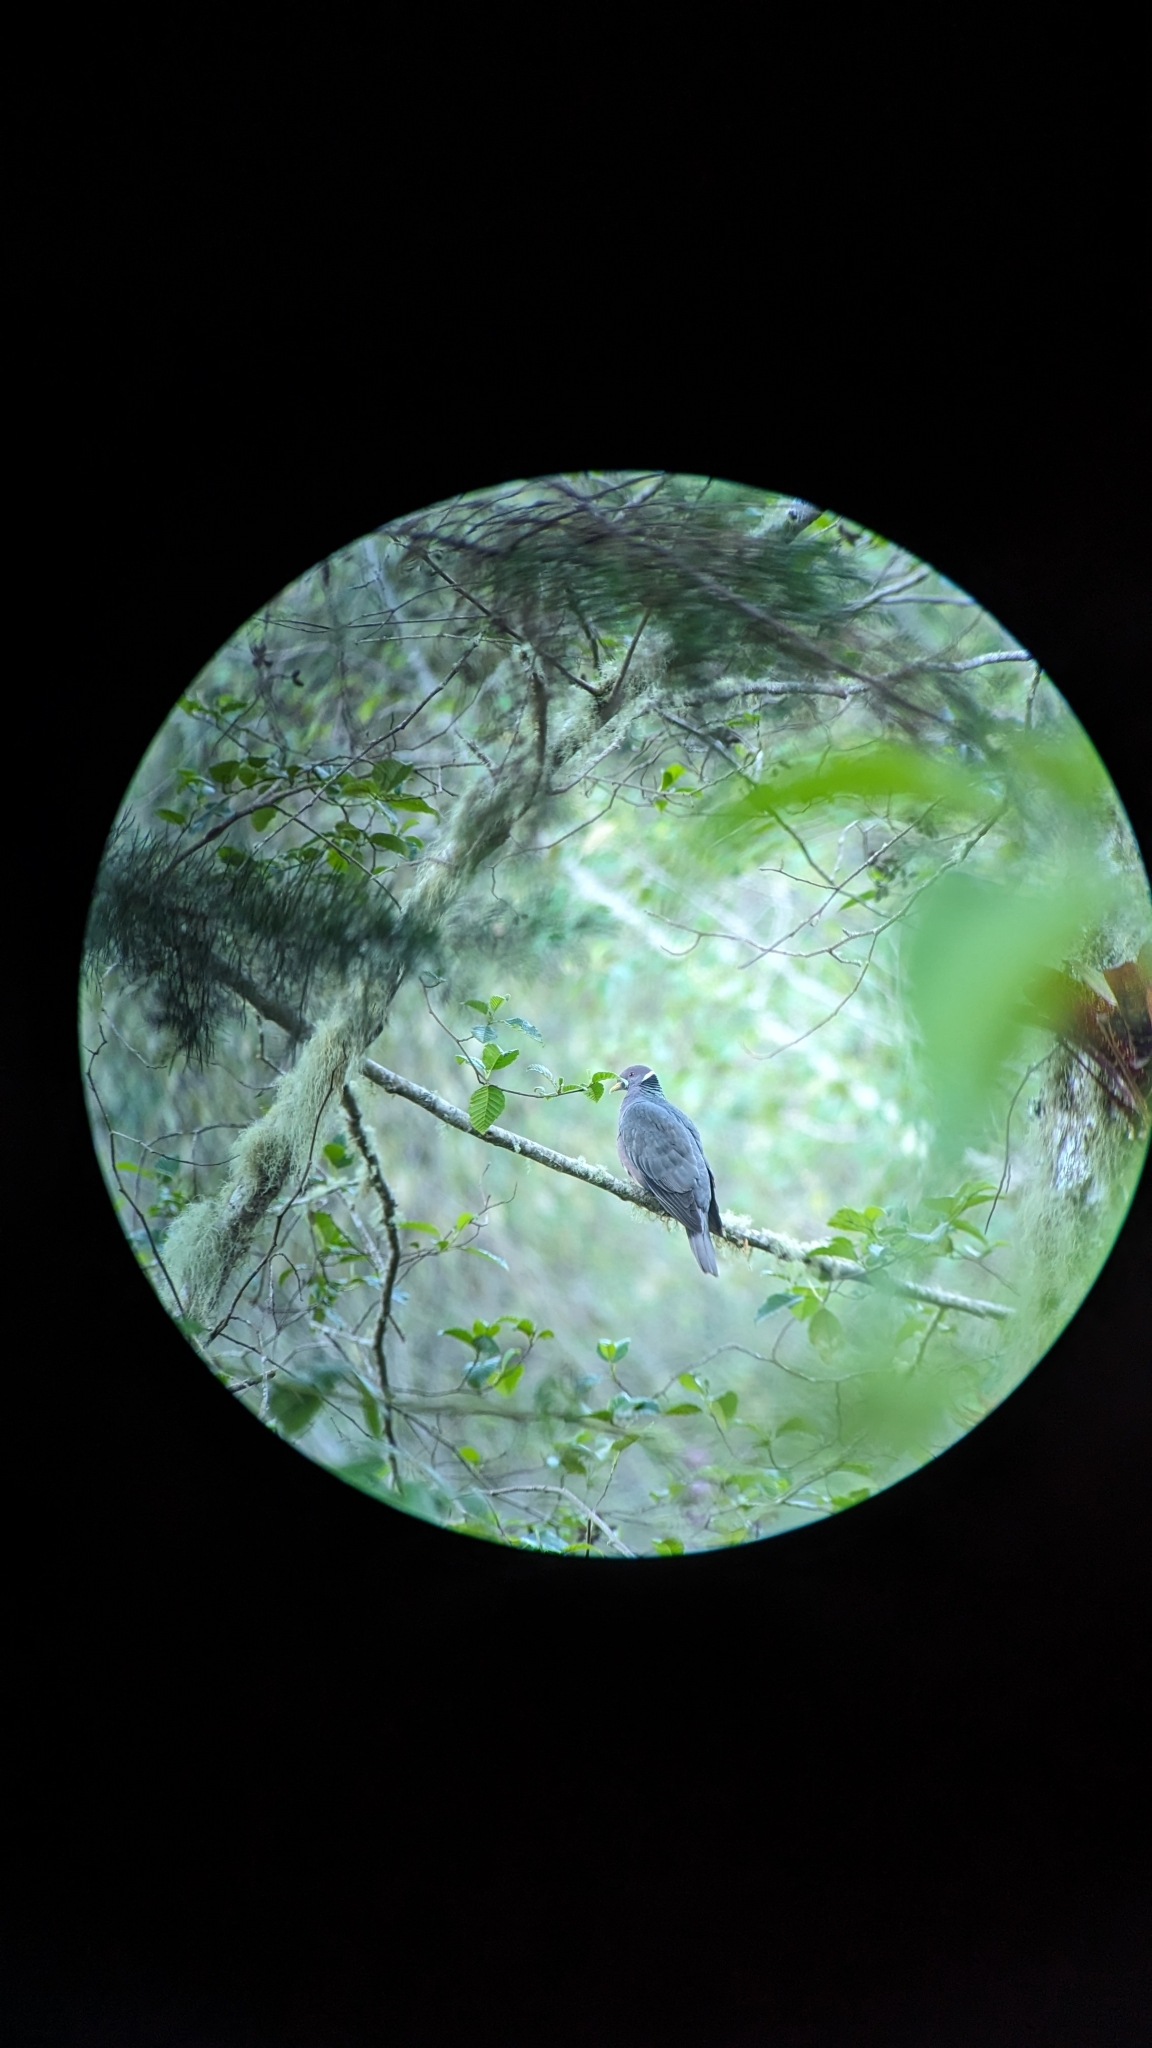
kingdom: Animalia
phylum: Chordata
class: Aves
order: Columbiformes
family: Columbidae
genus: Patagioenas
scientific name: Patagioenas fasciata
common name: Band-tailed pigeon
